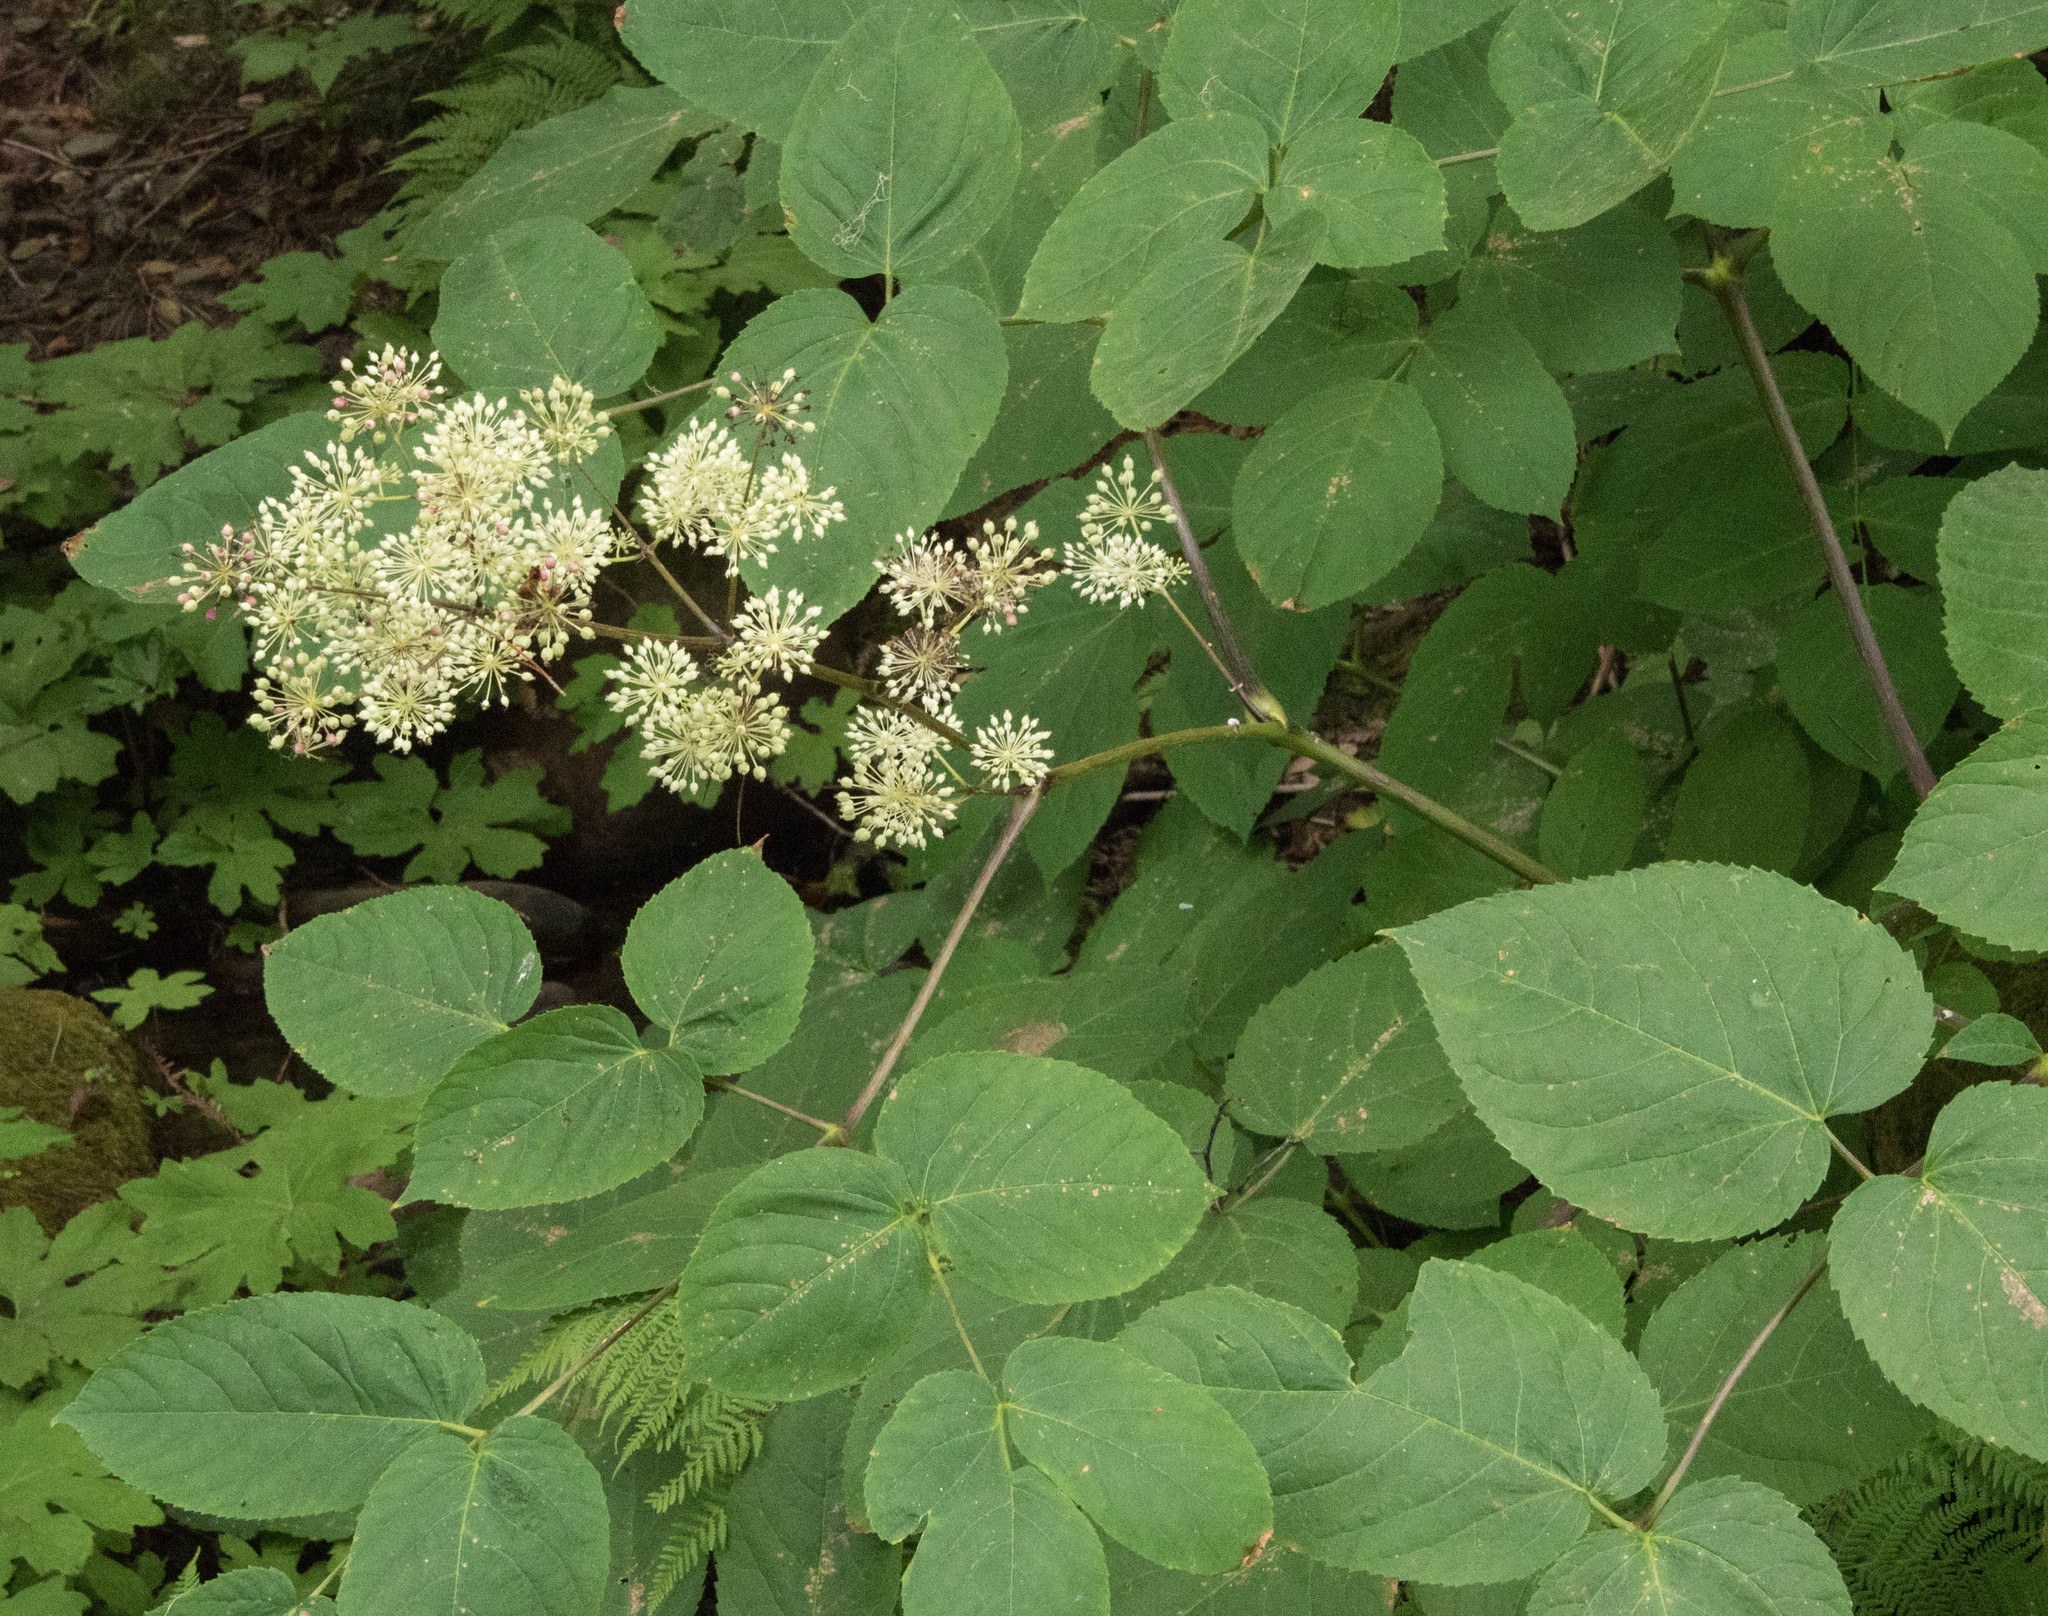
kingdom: Plantae
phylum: Tracheophyta
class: Magnoliopsida
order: Apiales
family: Araliaceae
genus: Aralia
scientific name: Aralia californica
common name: California-ginseng
